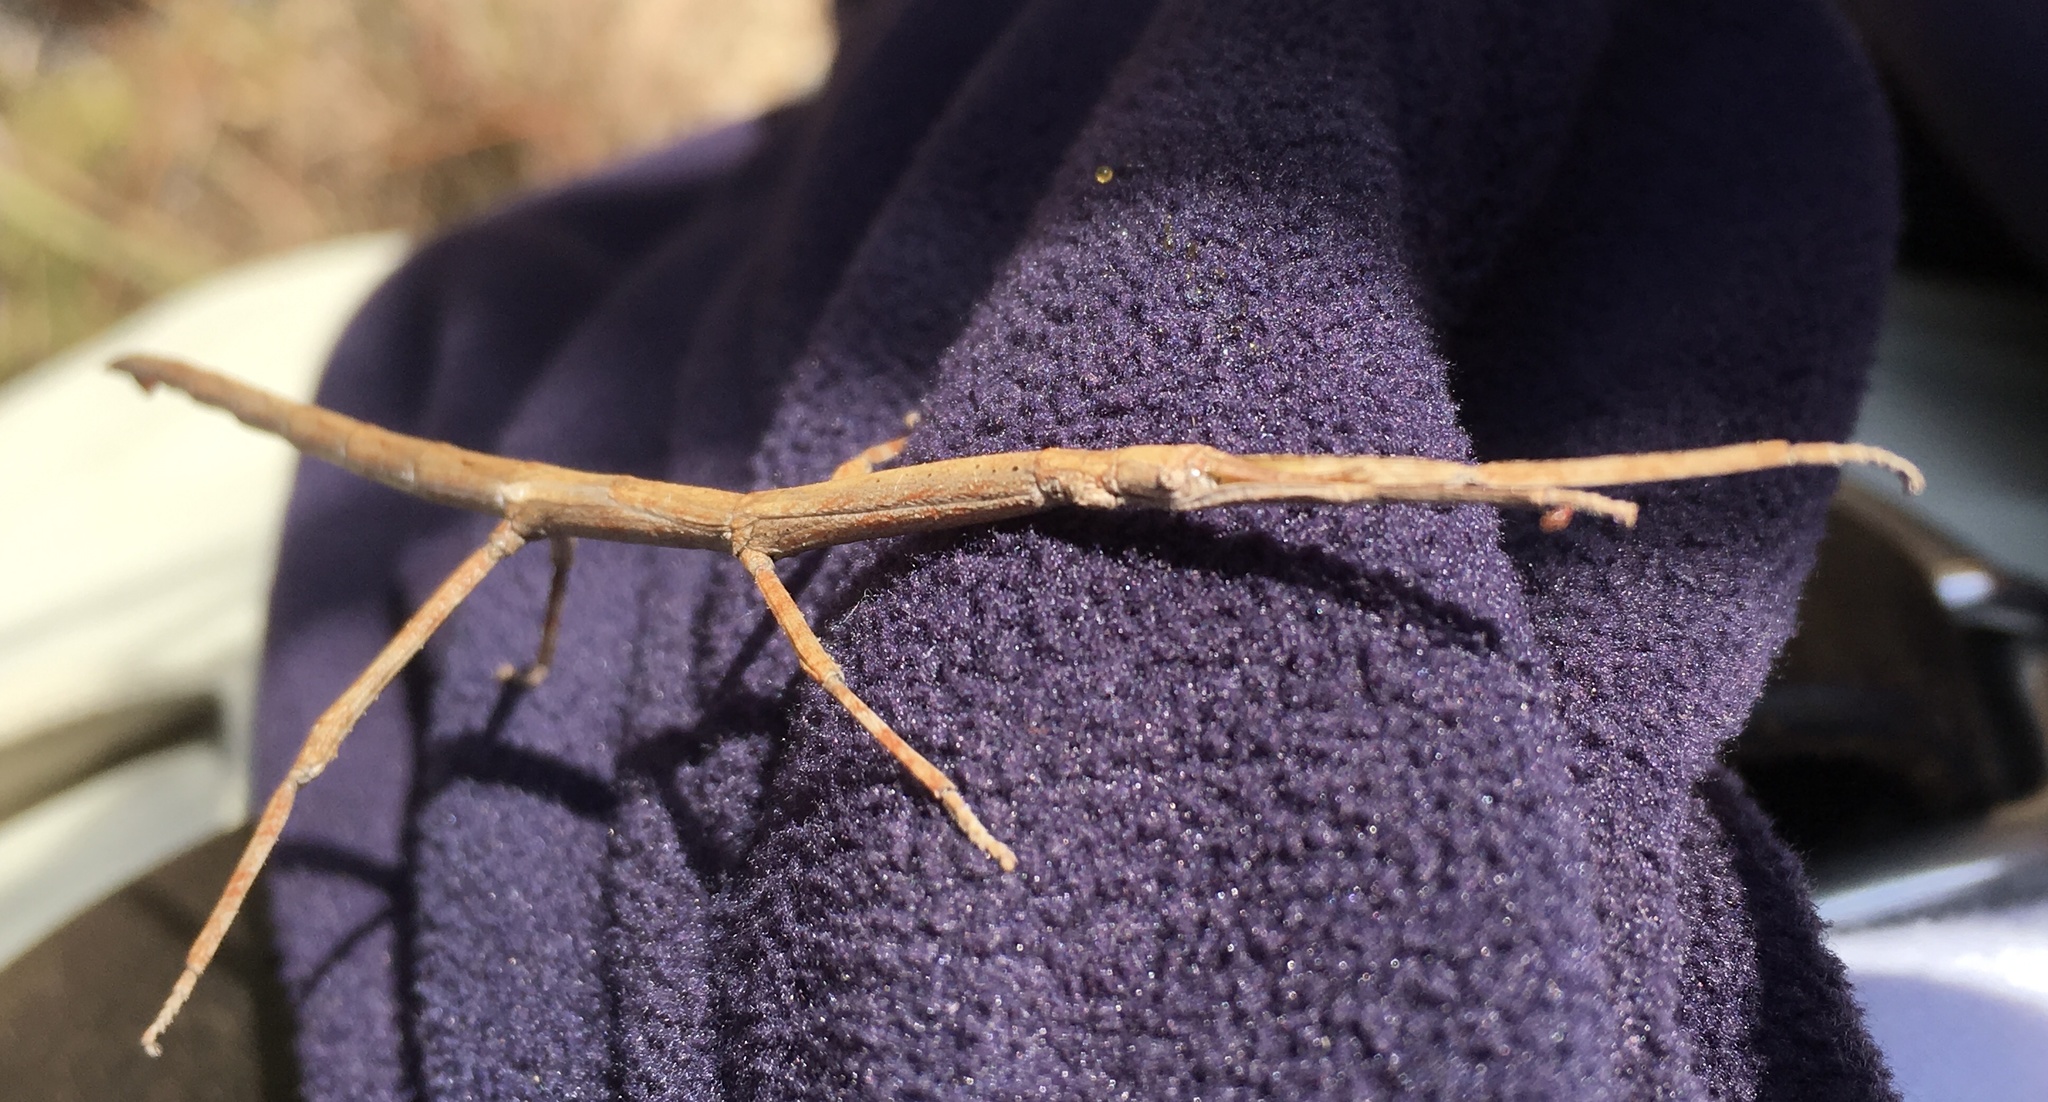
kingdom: Animalia
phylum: Arthropoda
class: Insecta
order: Phasmida
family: Phasmatidae
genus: Achrioptera
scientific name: Achrioptera impennis
